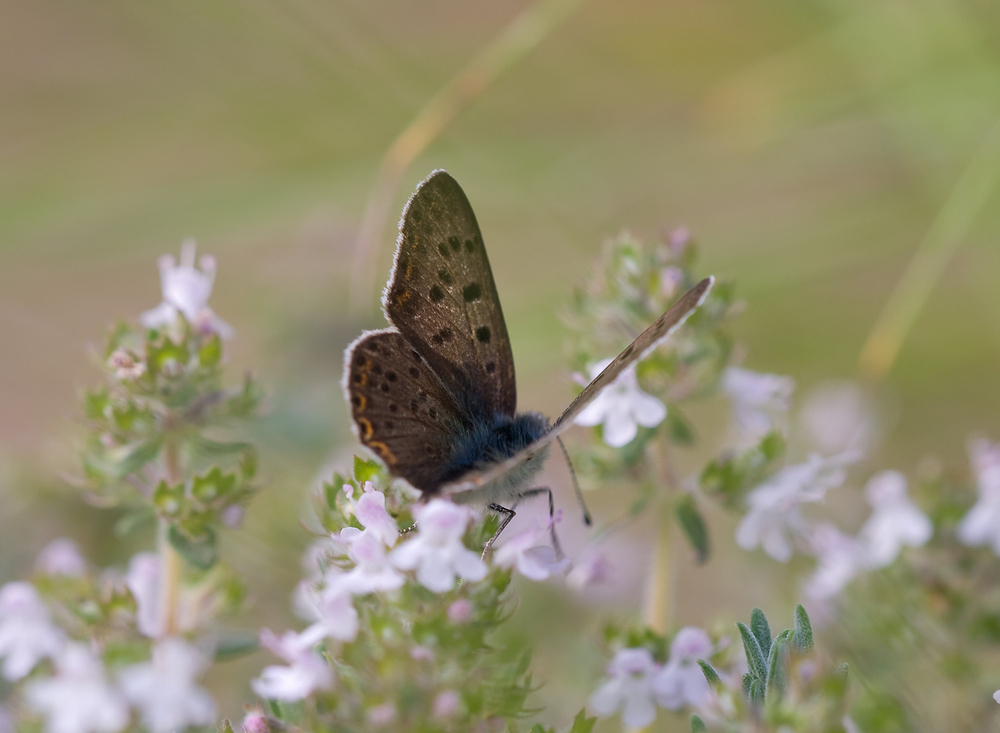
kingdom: Animalia
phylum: Arthropoda
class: Insecta
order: Lepidoptera
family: Lycaenidae
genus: Loweia
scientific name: Loweia tityrus
